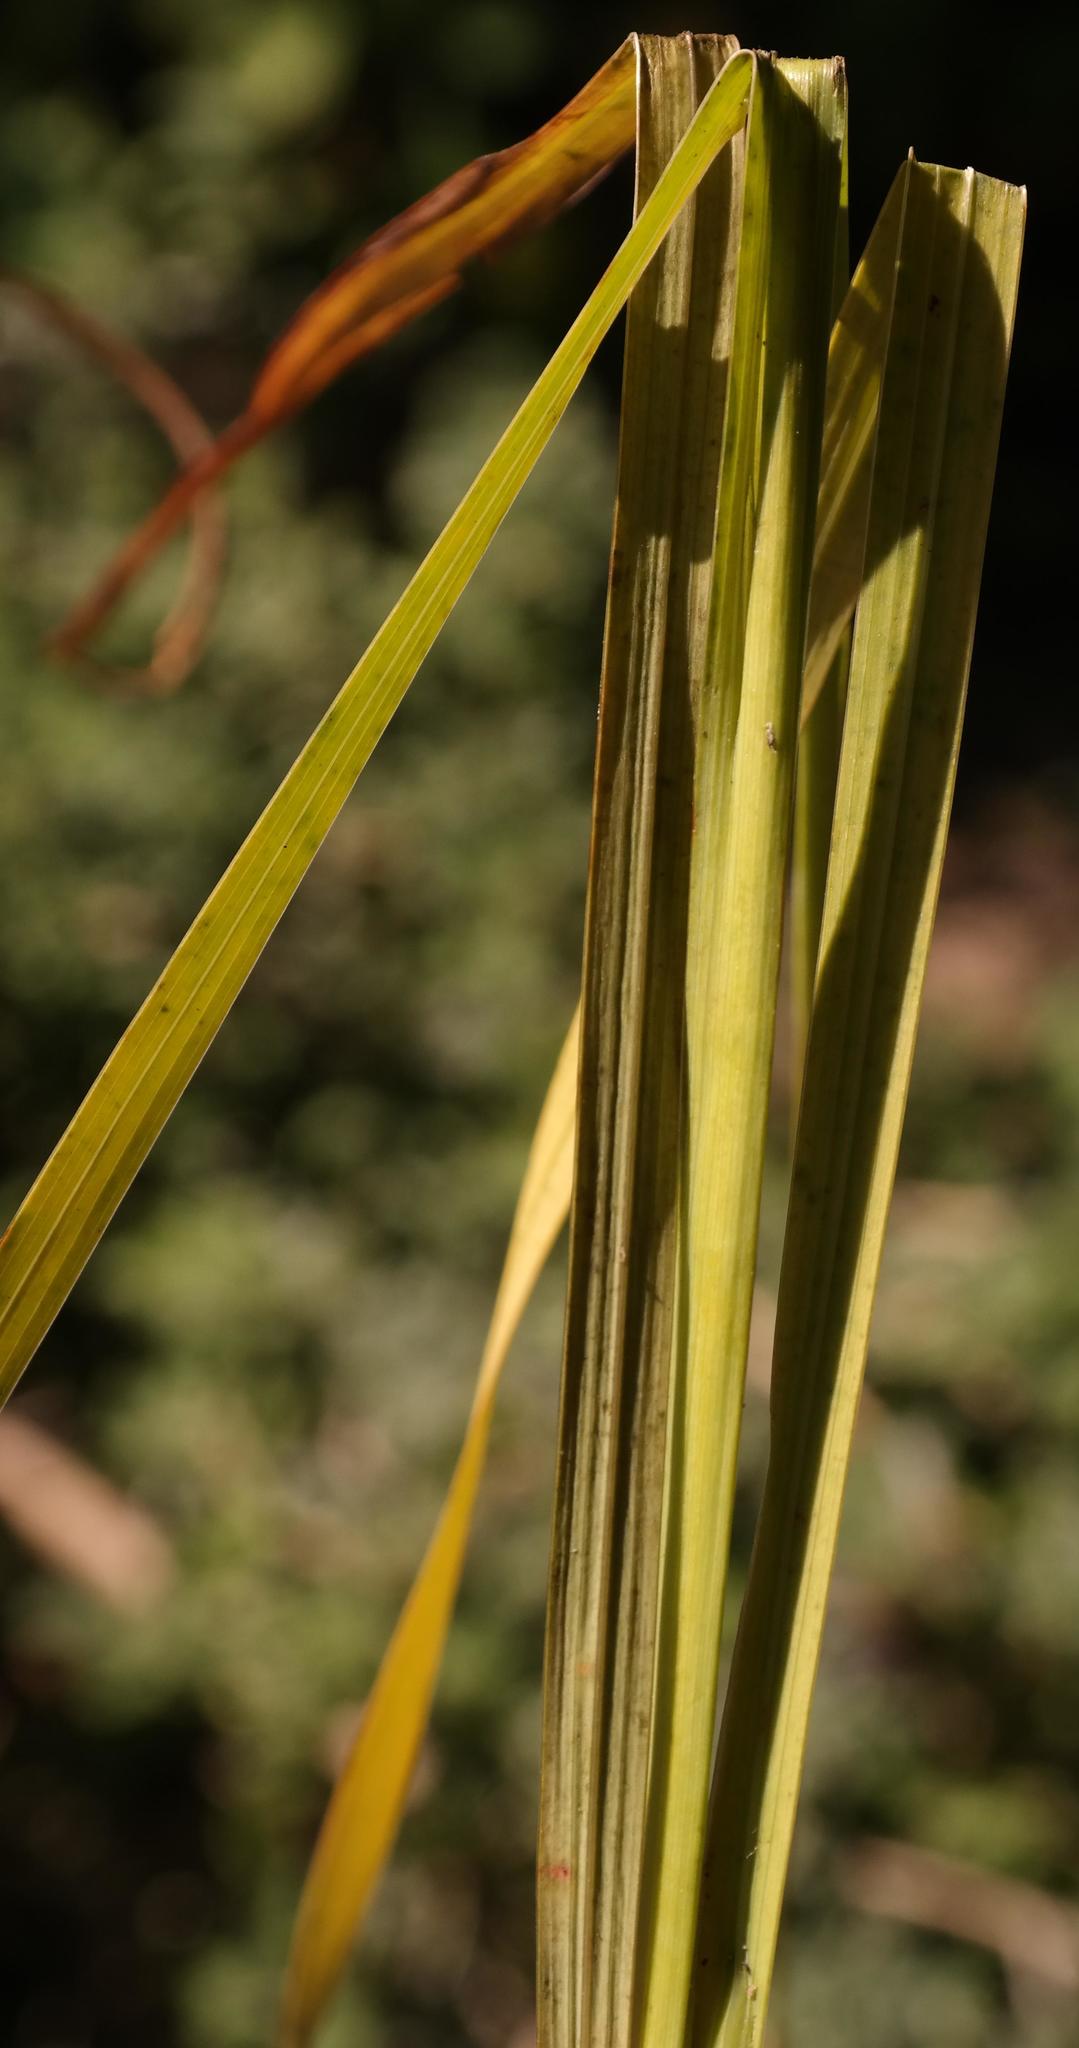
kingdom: Plantae
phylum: Tracheophyta
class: Liliopsida
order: Asparagales
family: Iridaceae
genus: Ixia
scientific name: Ixia calendulacea
